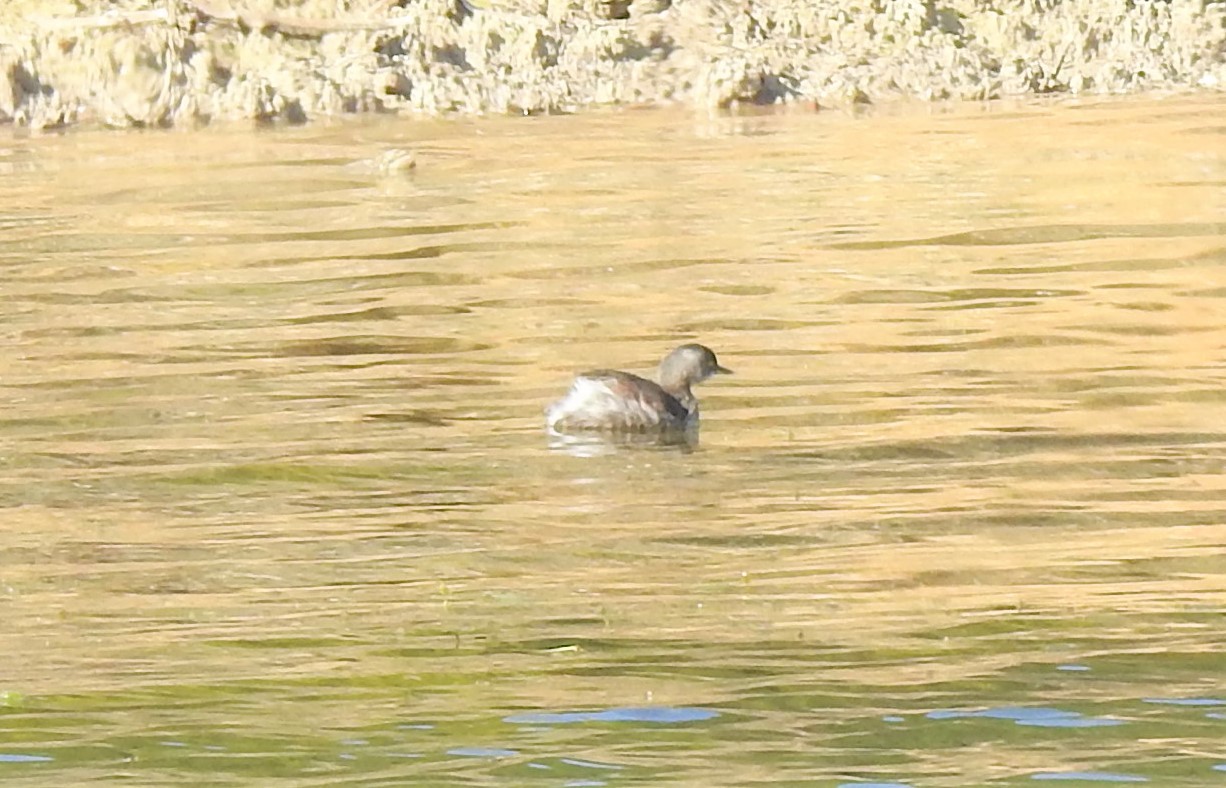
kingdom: Animalia
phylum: Chordata
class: Aves
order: Podicipediformes
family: Podicipedidae
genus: Tachybaptus
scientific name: Tachybaptus dominicus
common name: Least grebe
